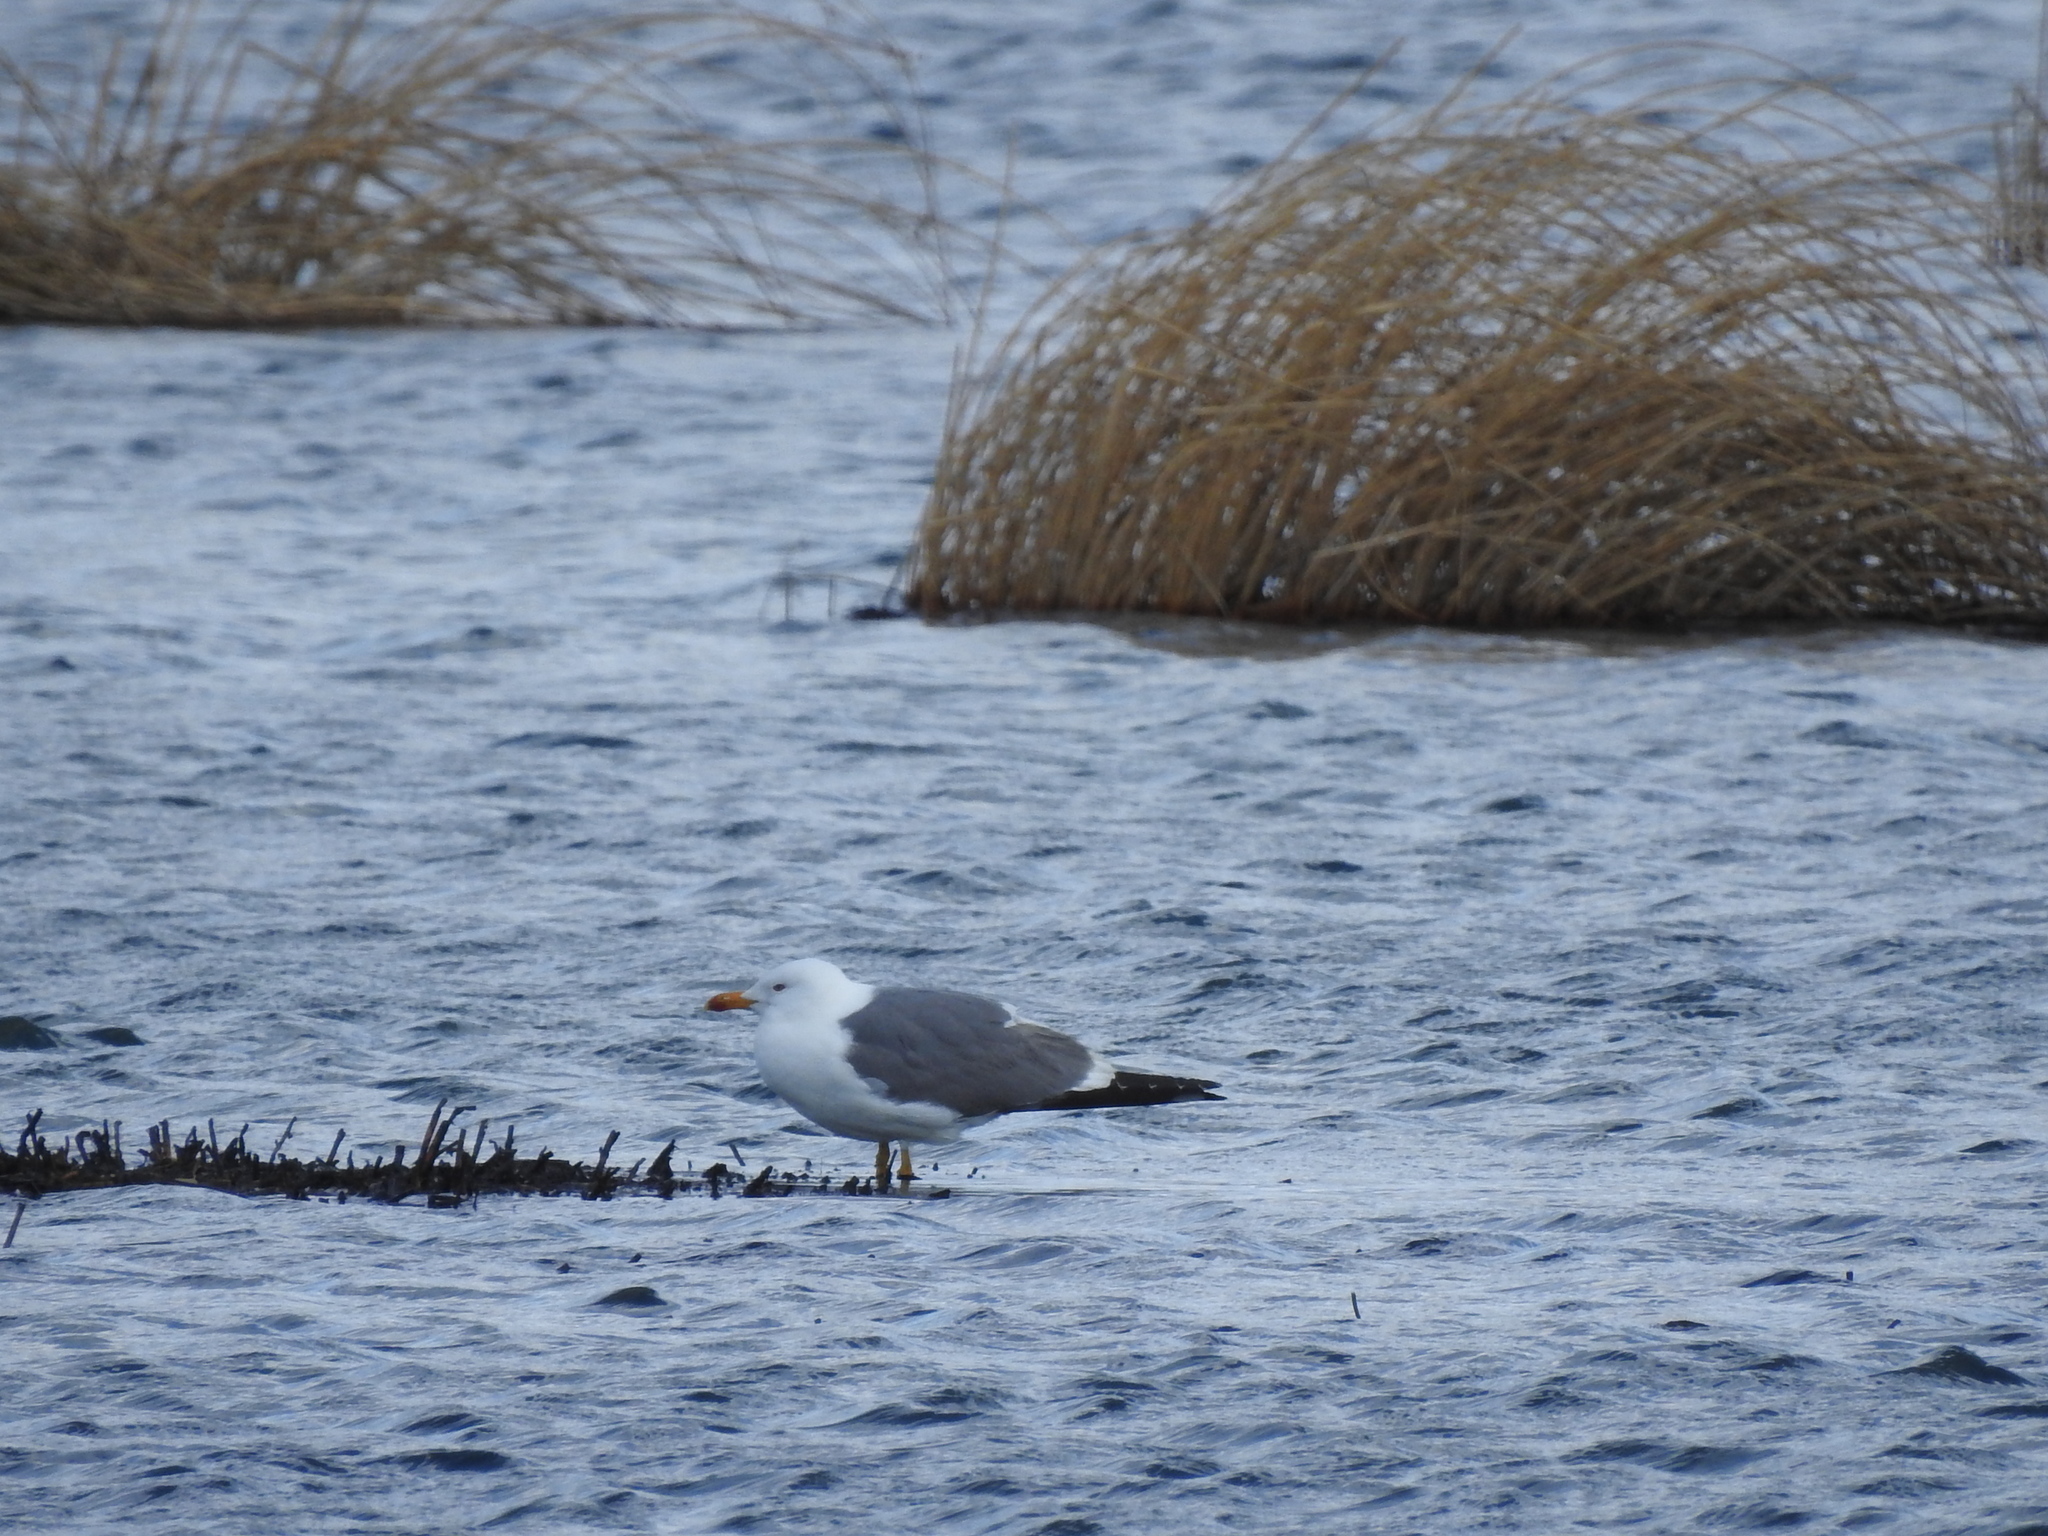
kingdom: Animalia
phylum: Chordata
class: Aves
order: Charadriiformes
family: Laridae
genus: Larus
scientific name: Larus fuscus
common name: Lesser black-backed gull
